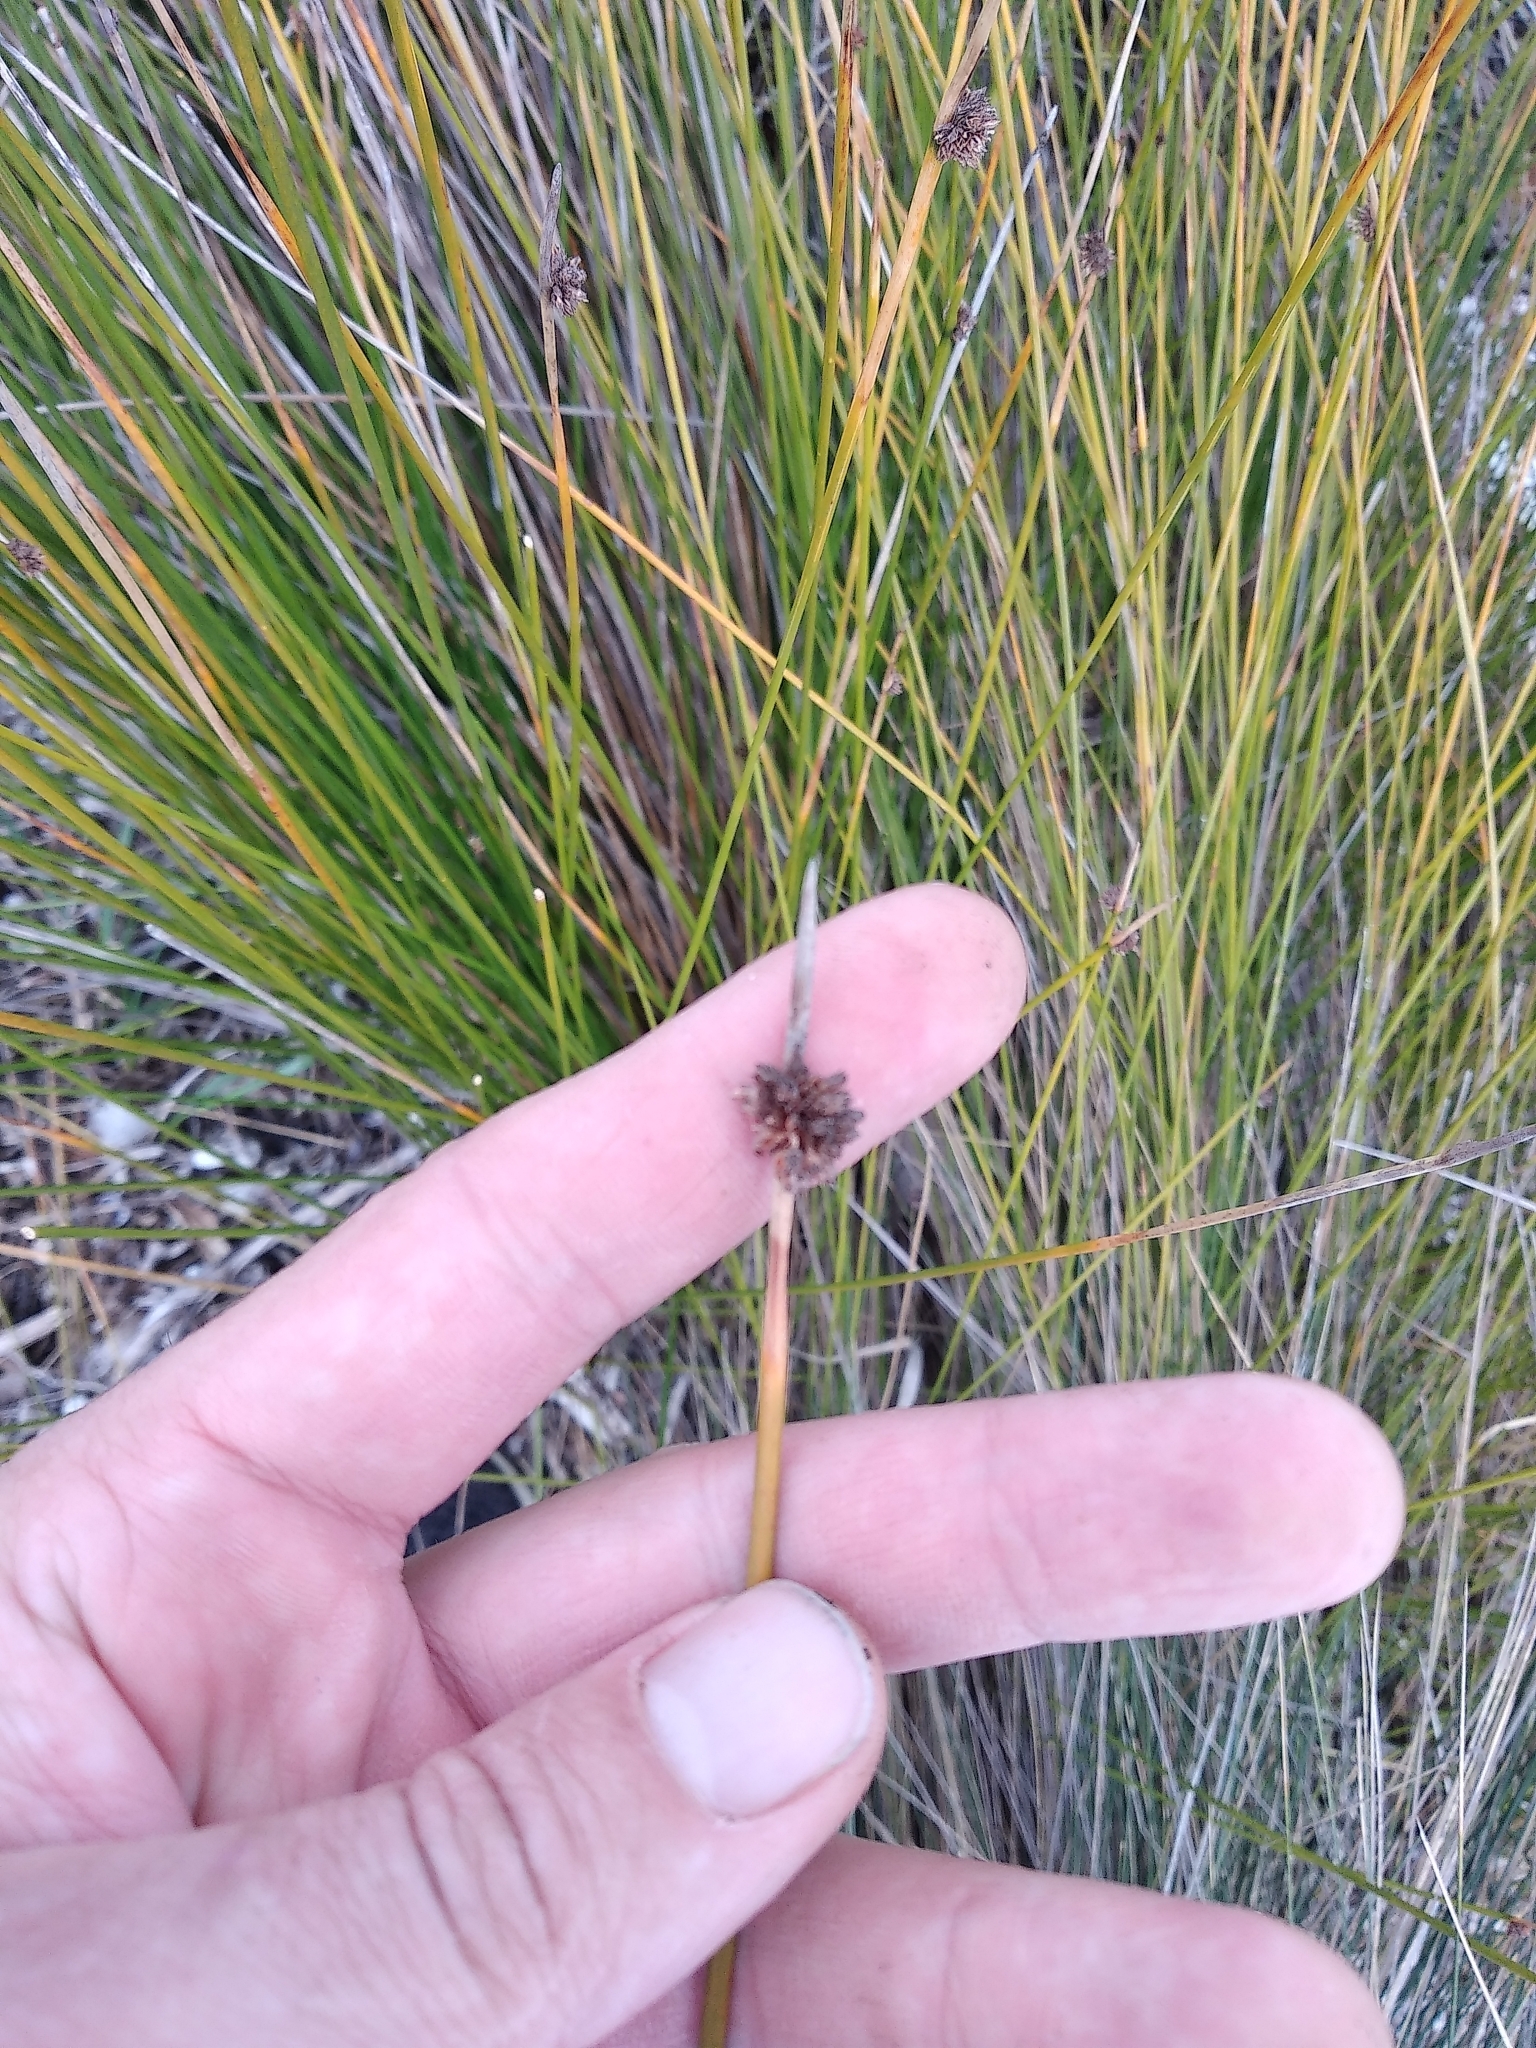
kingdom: Plantae
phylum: Tracheophyta
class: Liliopsida
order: Poales
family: Cyperaceae
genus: Ficinia
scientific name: Ficinia nodosa
